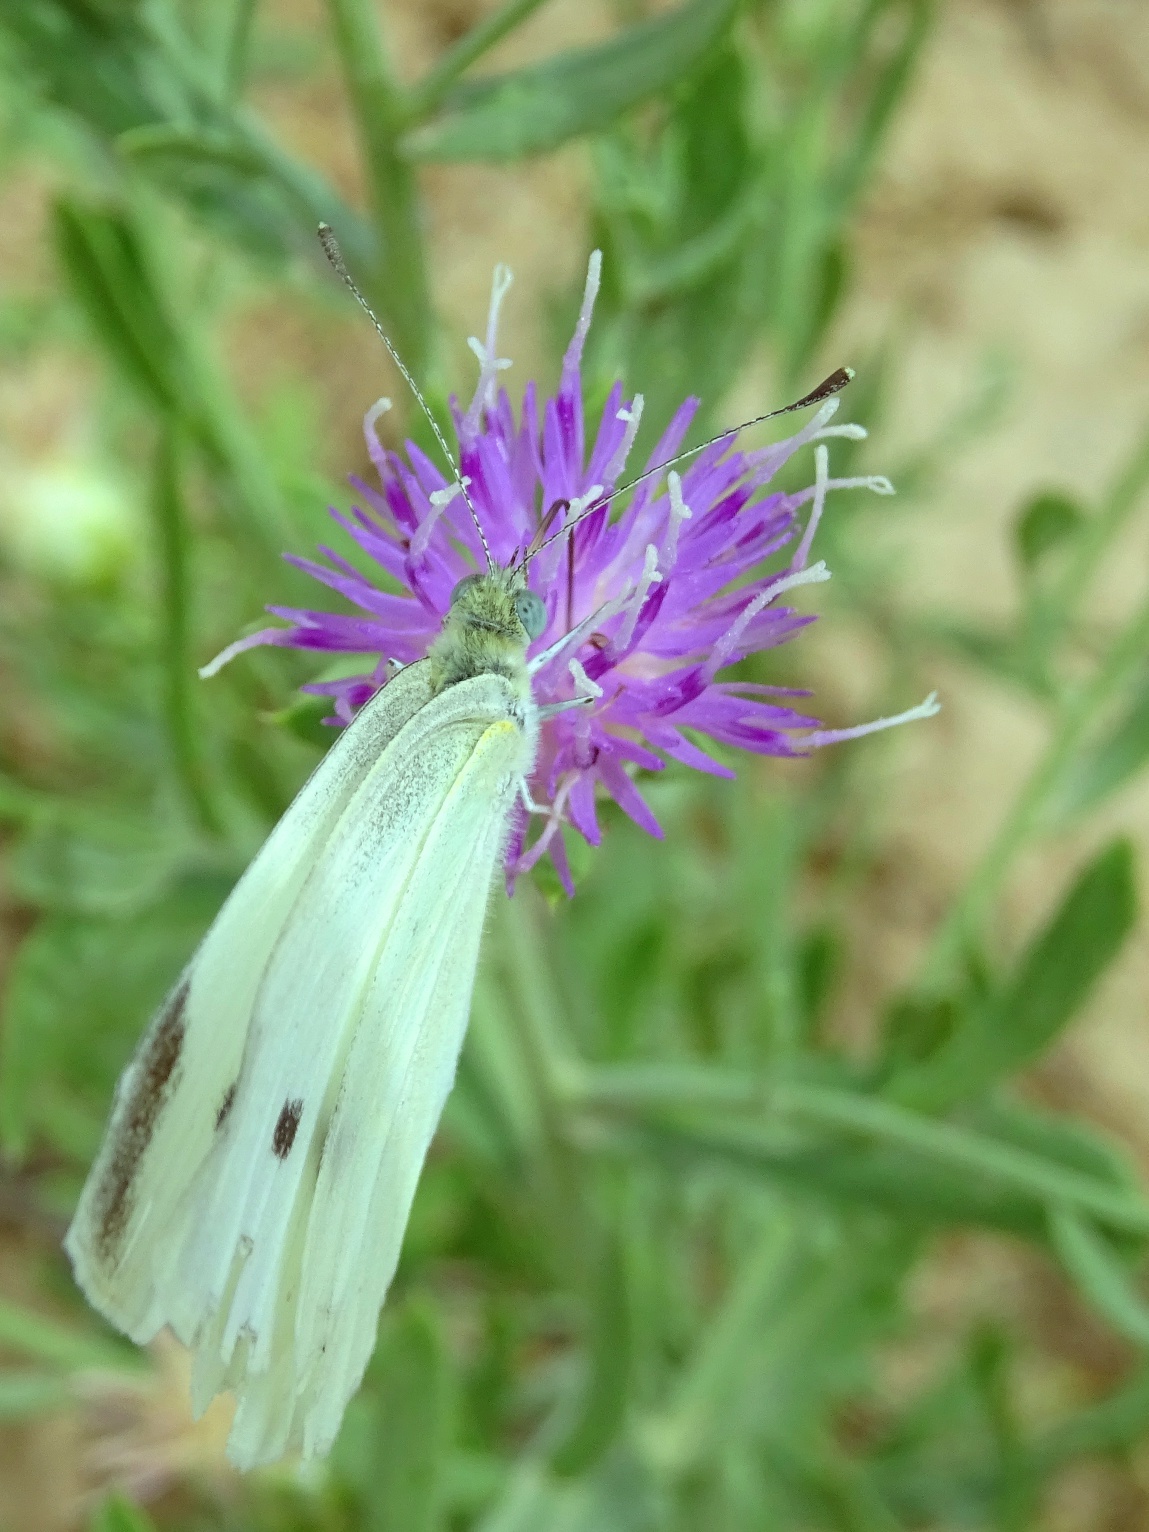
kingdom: Animalia
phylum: Arthropoda
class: Insecta
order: Lepidoptera
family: Pieridae
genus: Pieris
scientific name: Pieris rapae
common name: Small white
